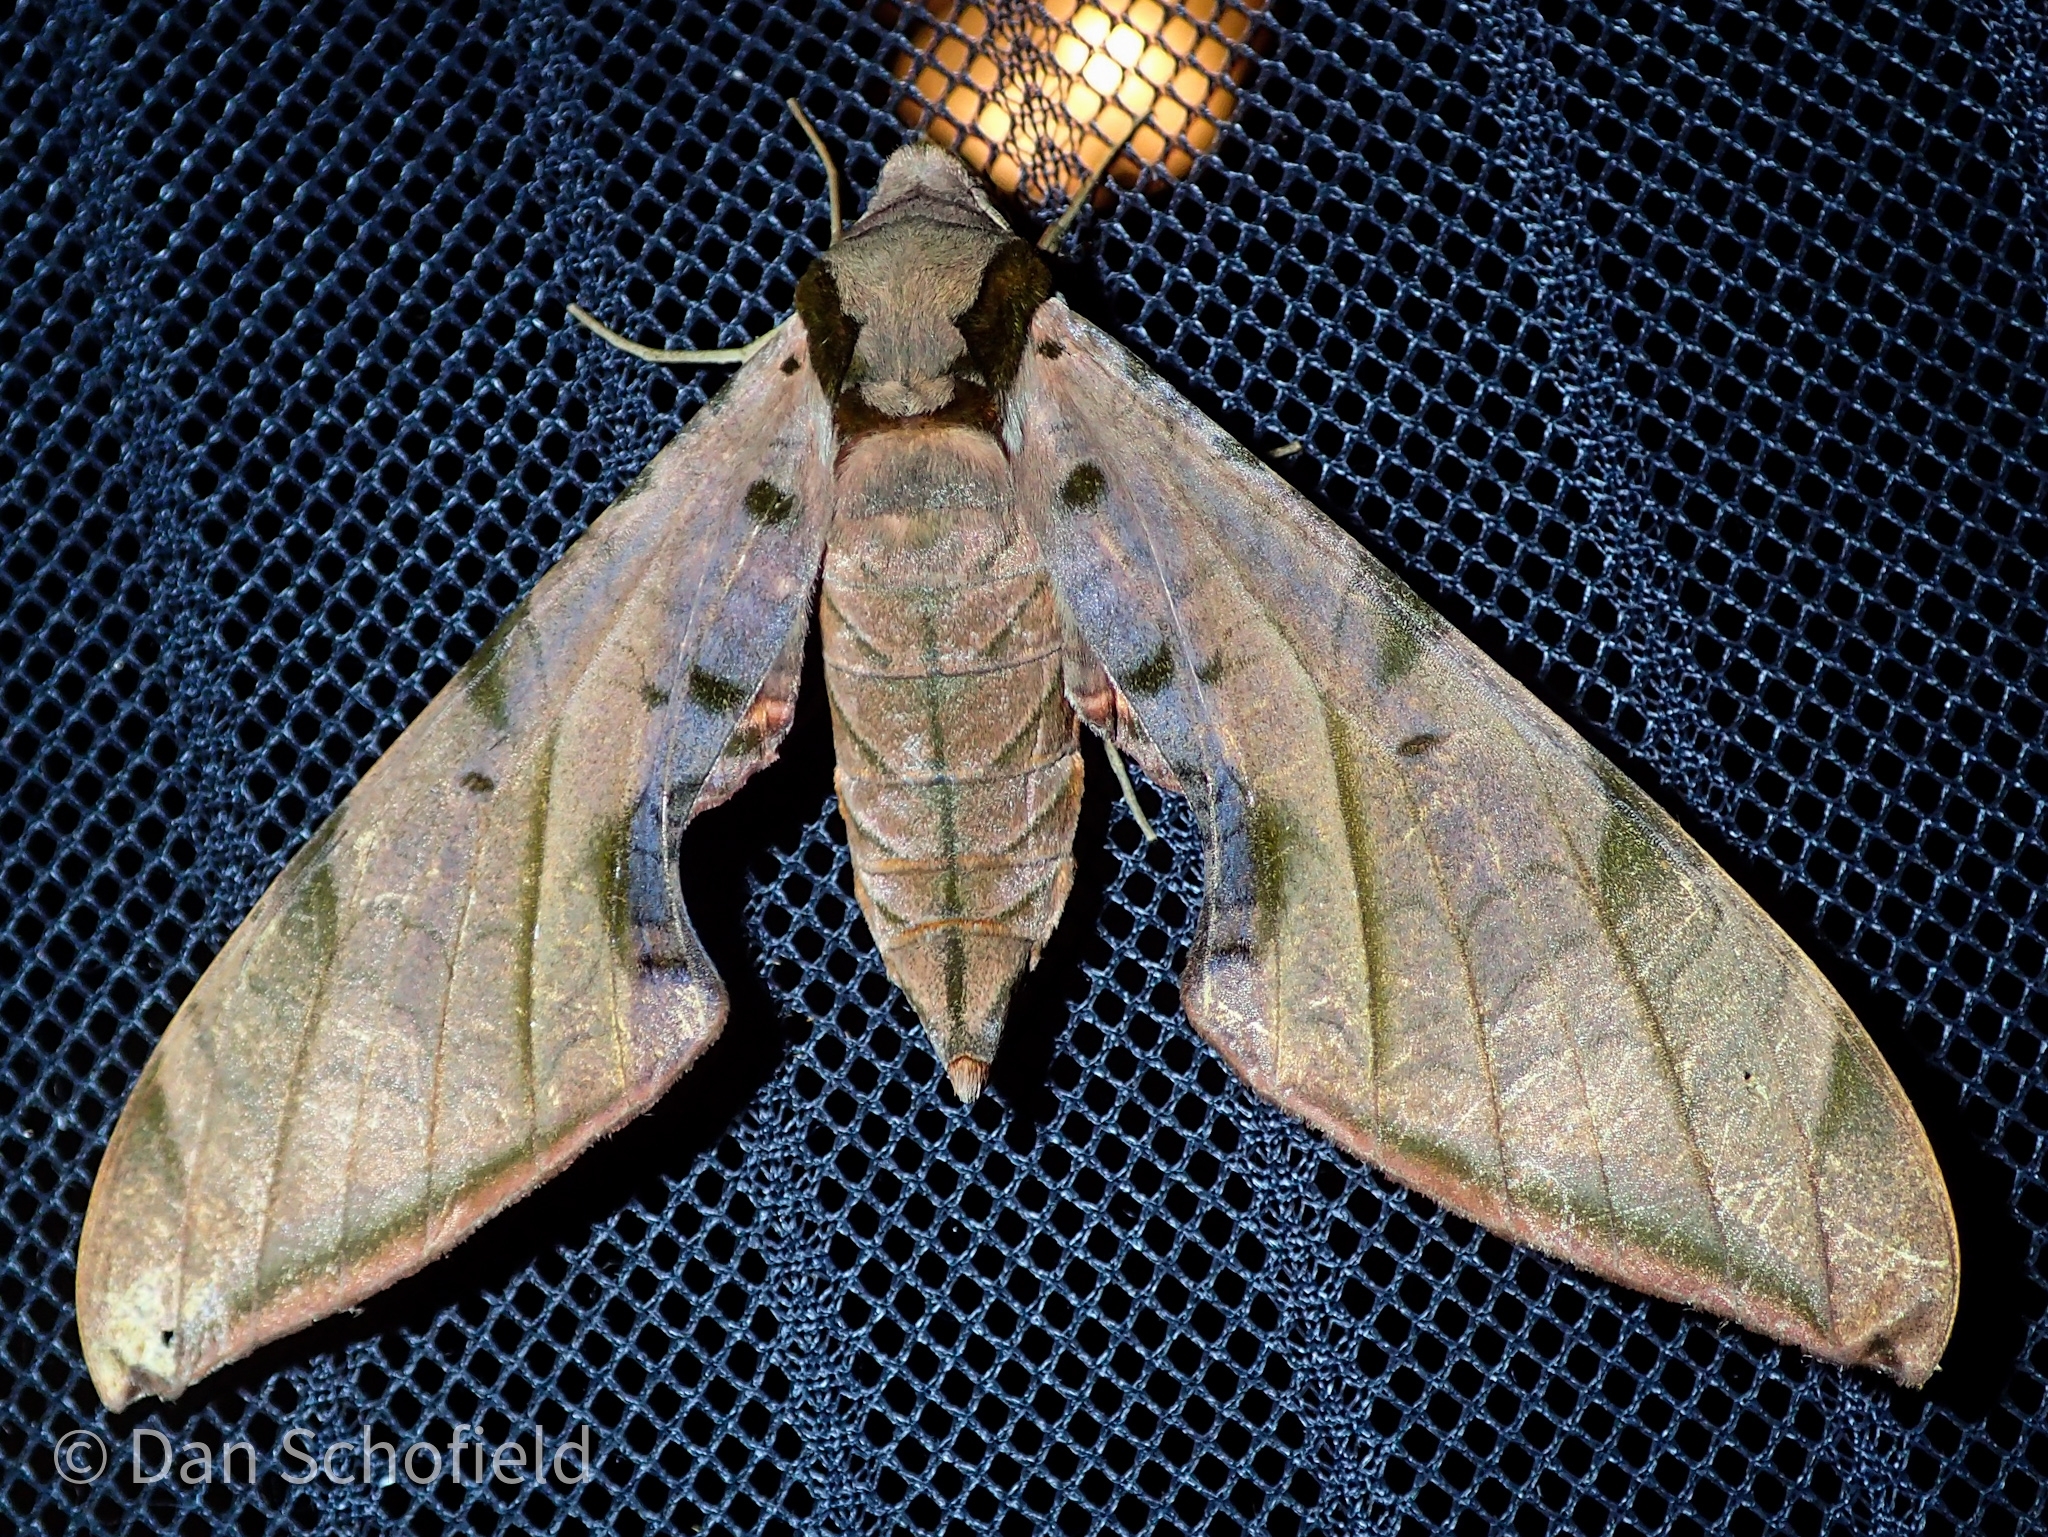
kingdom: Animalia
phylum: Arthropoda
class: Insecta
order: Lepidoptera
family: Sphingidae
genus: Protambulyx
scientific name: Protambulyx strigilis
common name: Streaked sphinx
